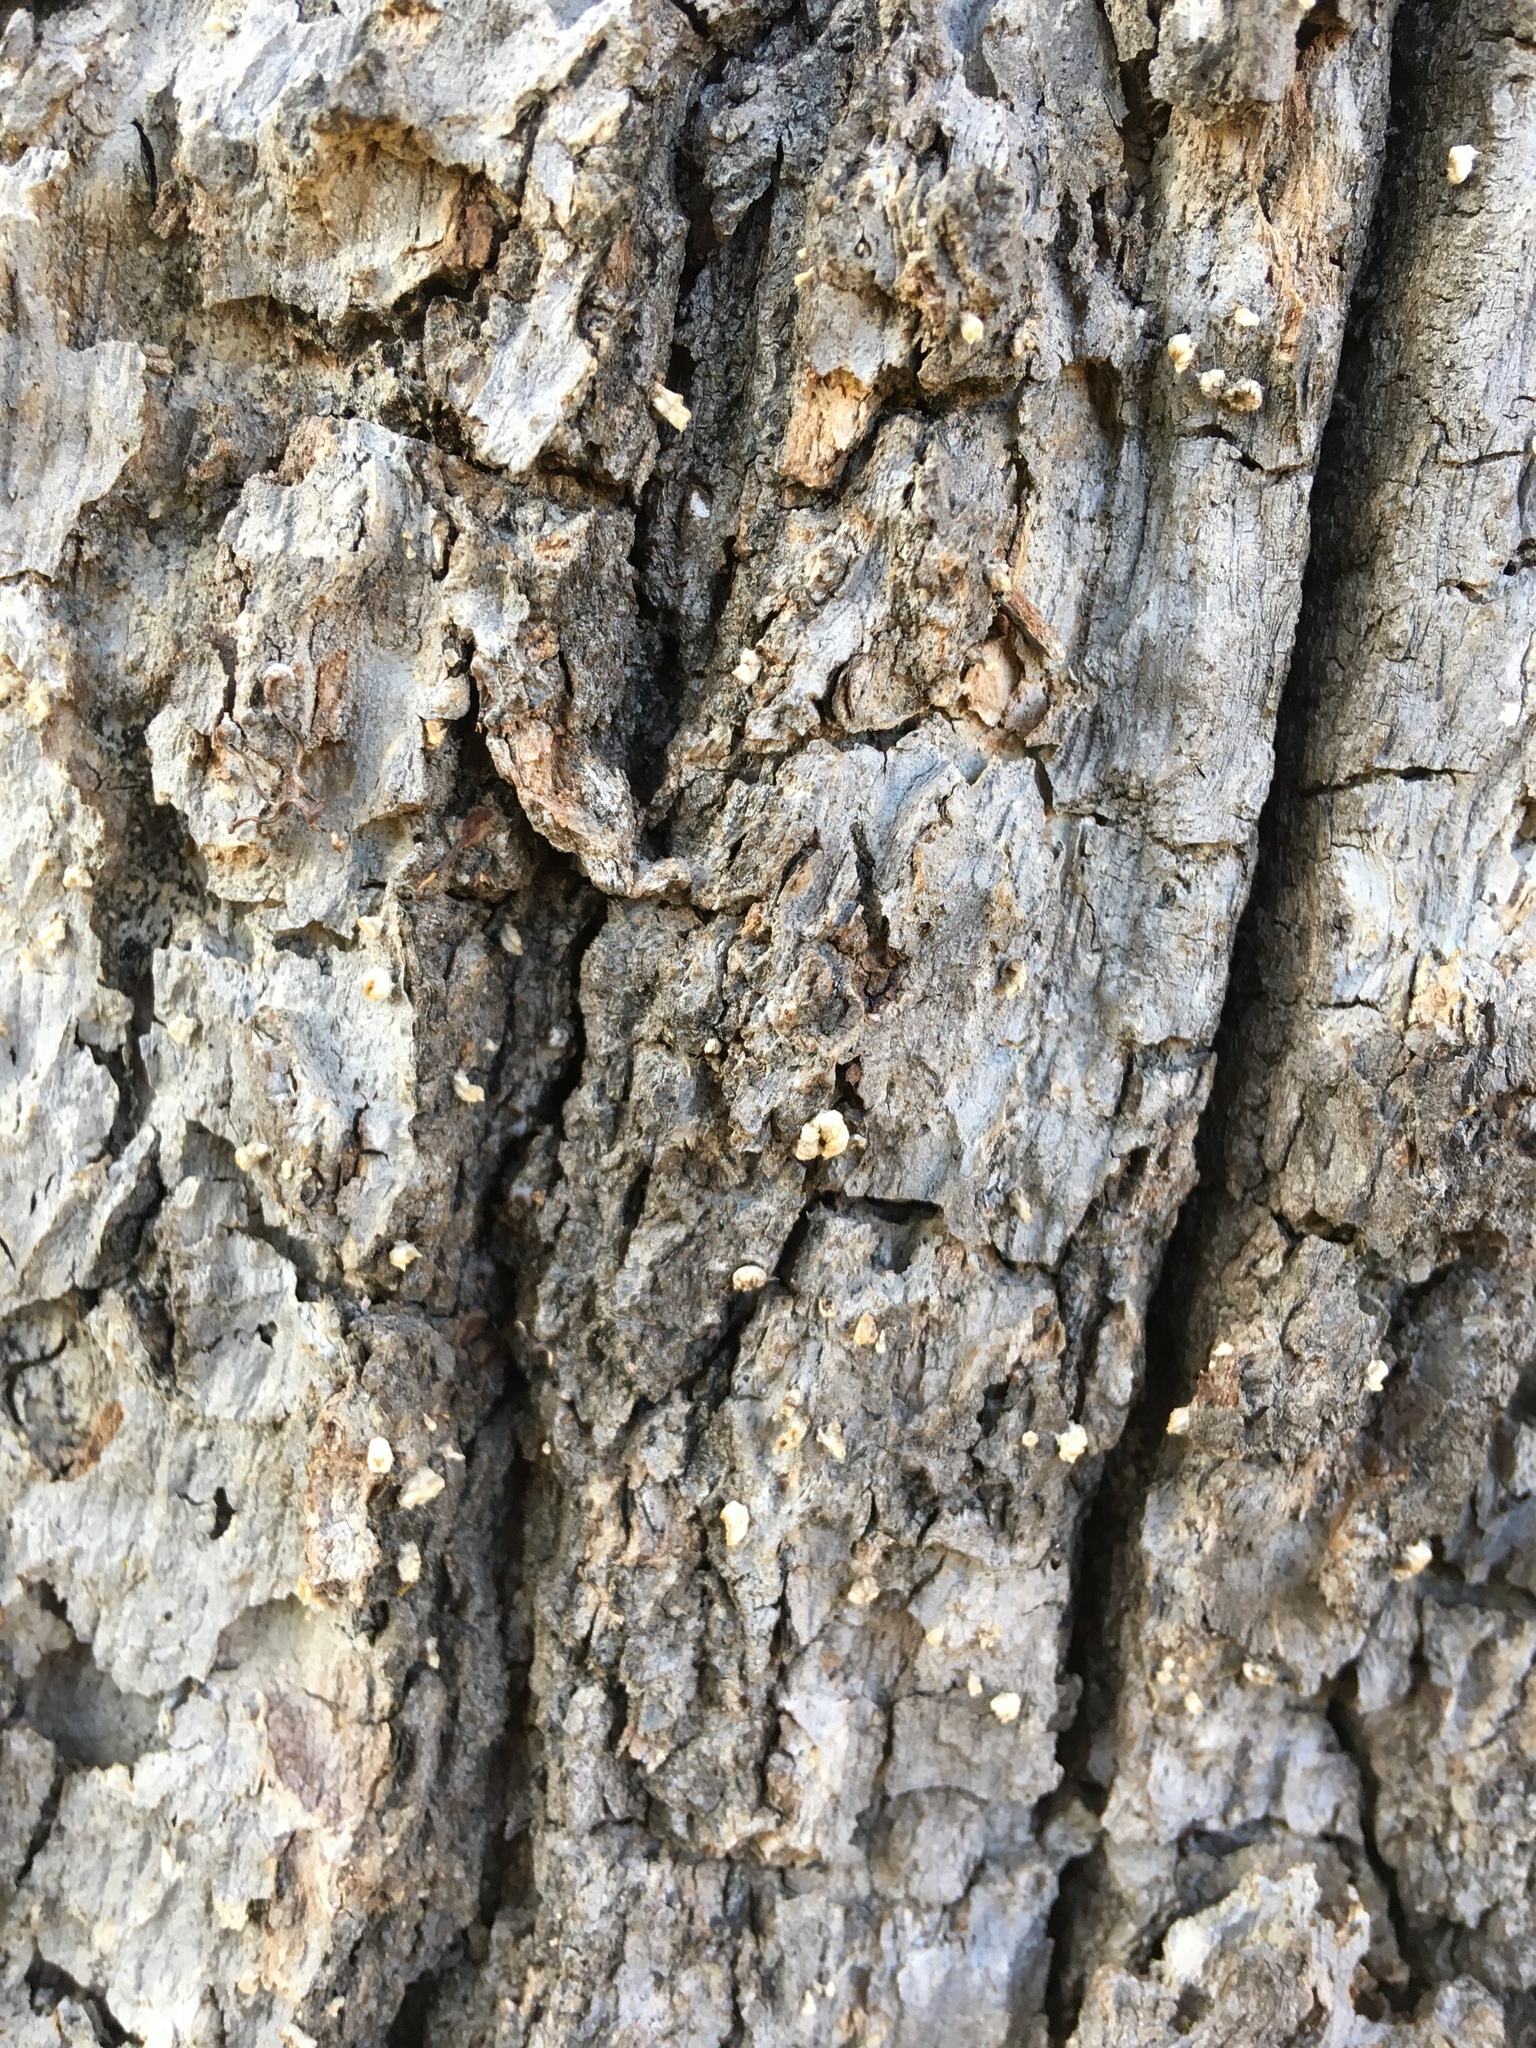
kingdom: Fungi
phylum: Basidiomycota
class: Agaricomycetes
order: Russulales
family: Stereaceae
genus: Acanthophysium
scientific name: Acanthophysium oakesii
